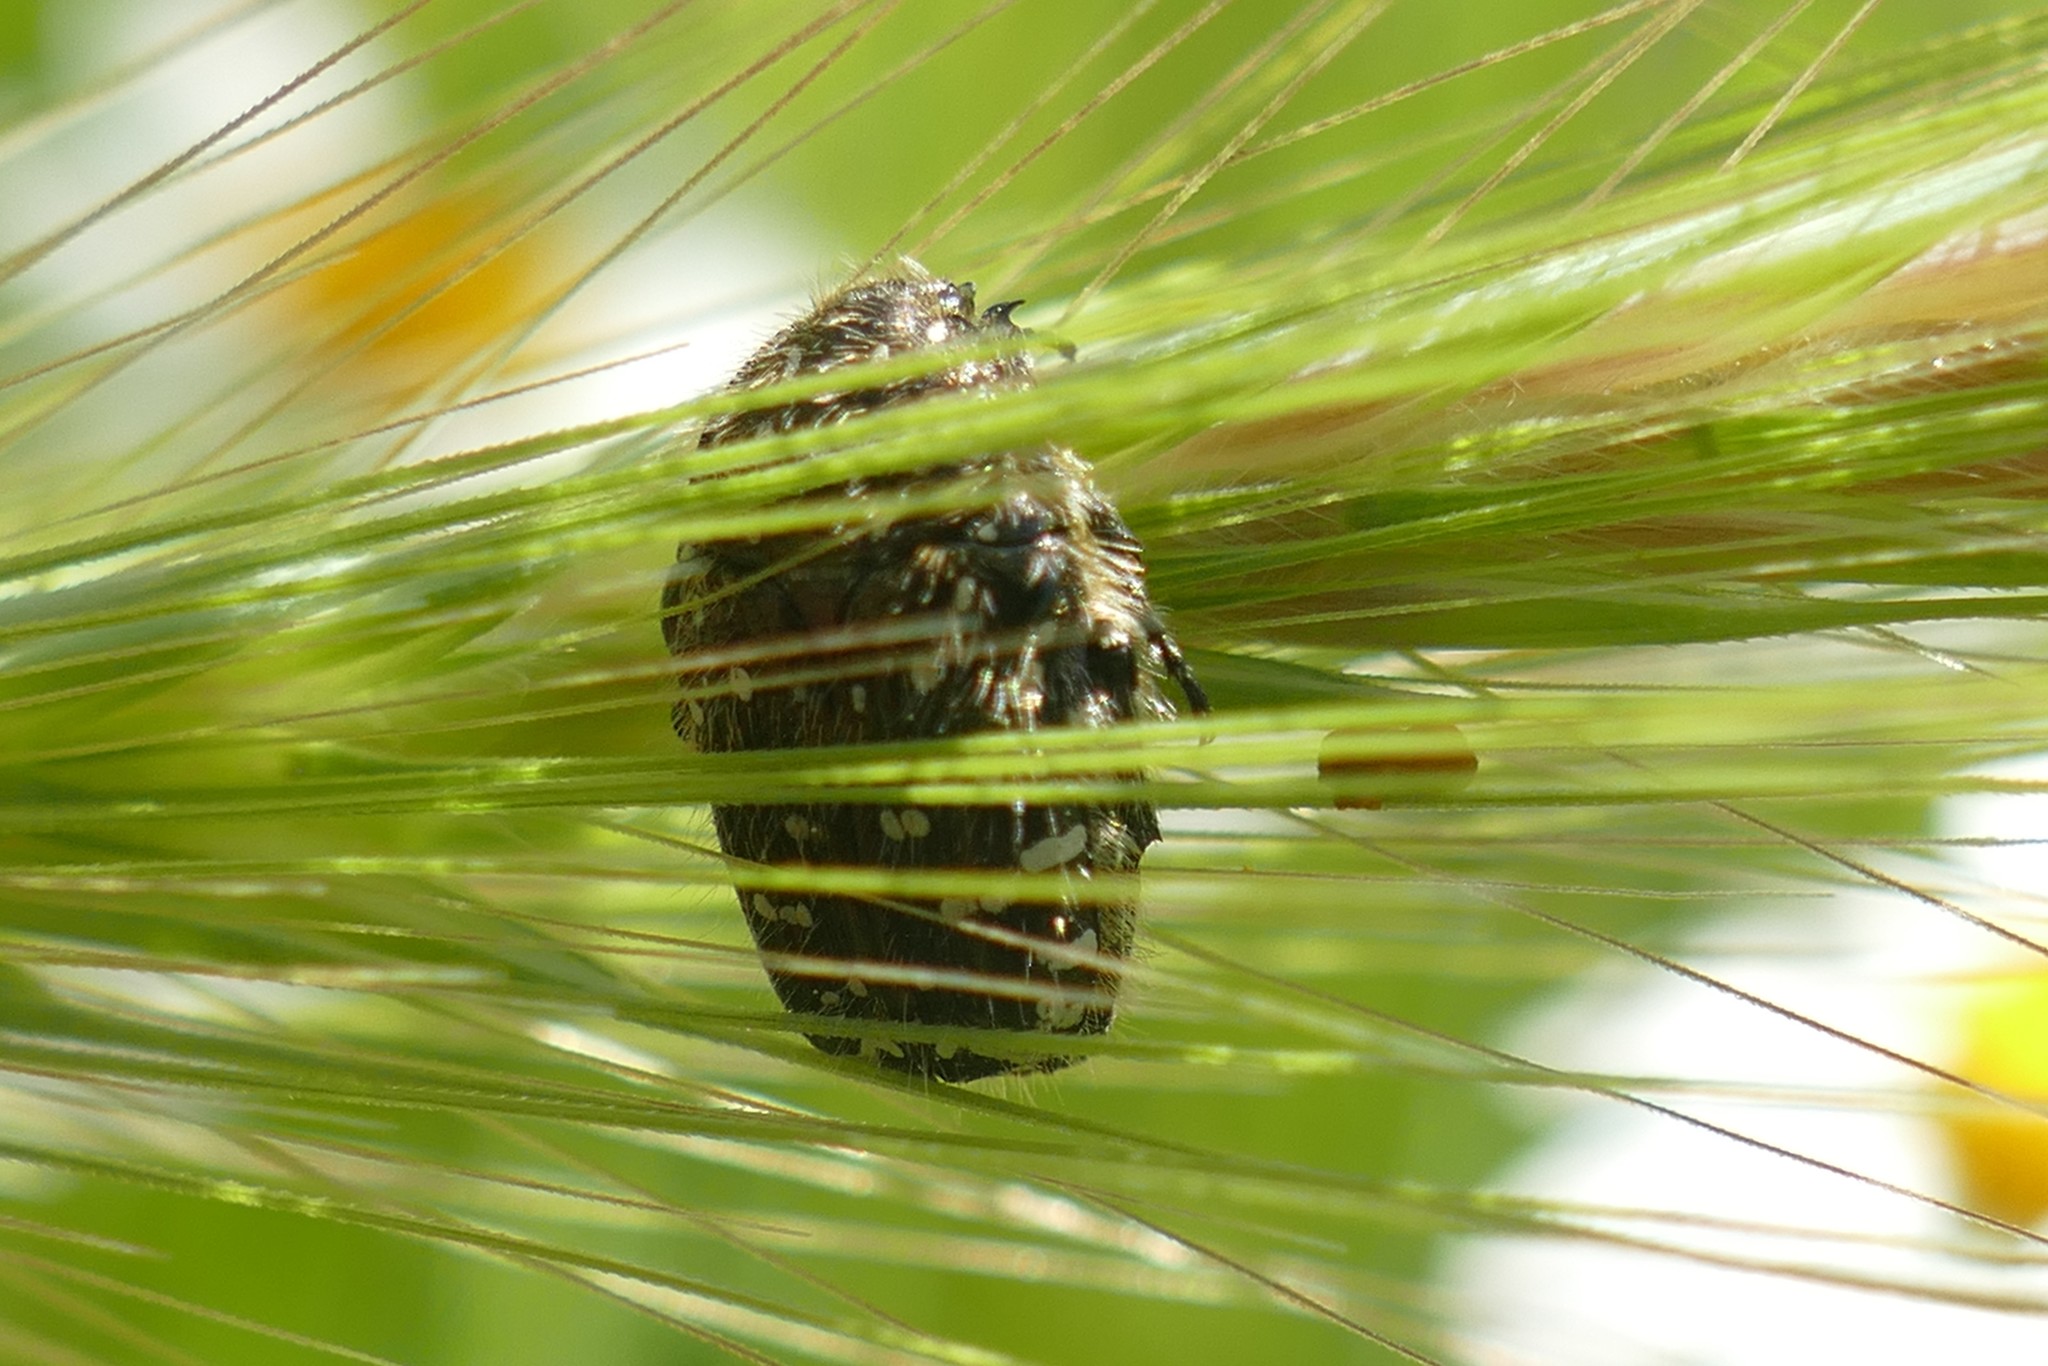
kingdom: Animalia
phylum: Arthropoda
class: Insecta
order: Coleoptera
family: Scarabaeidae
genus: Oxythyrea
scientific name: Oxythyrea funesta
